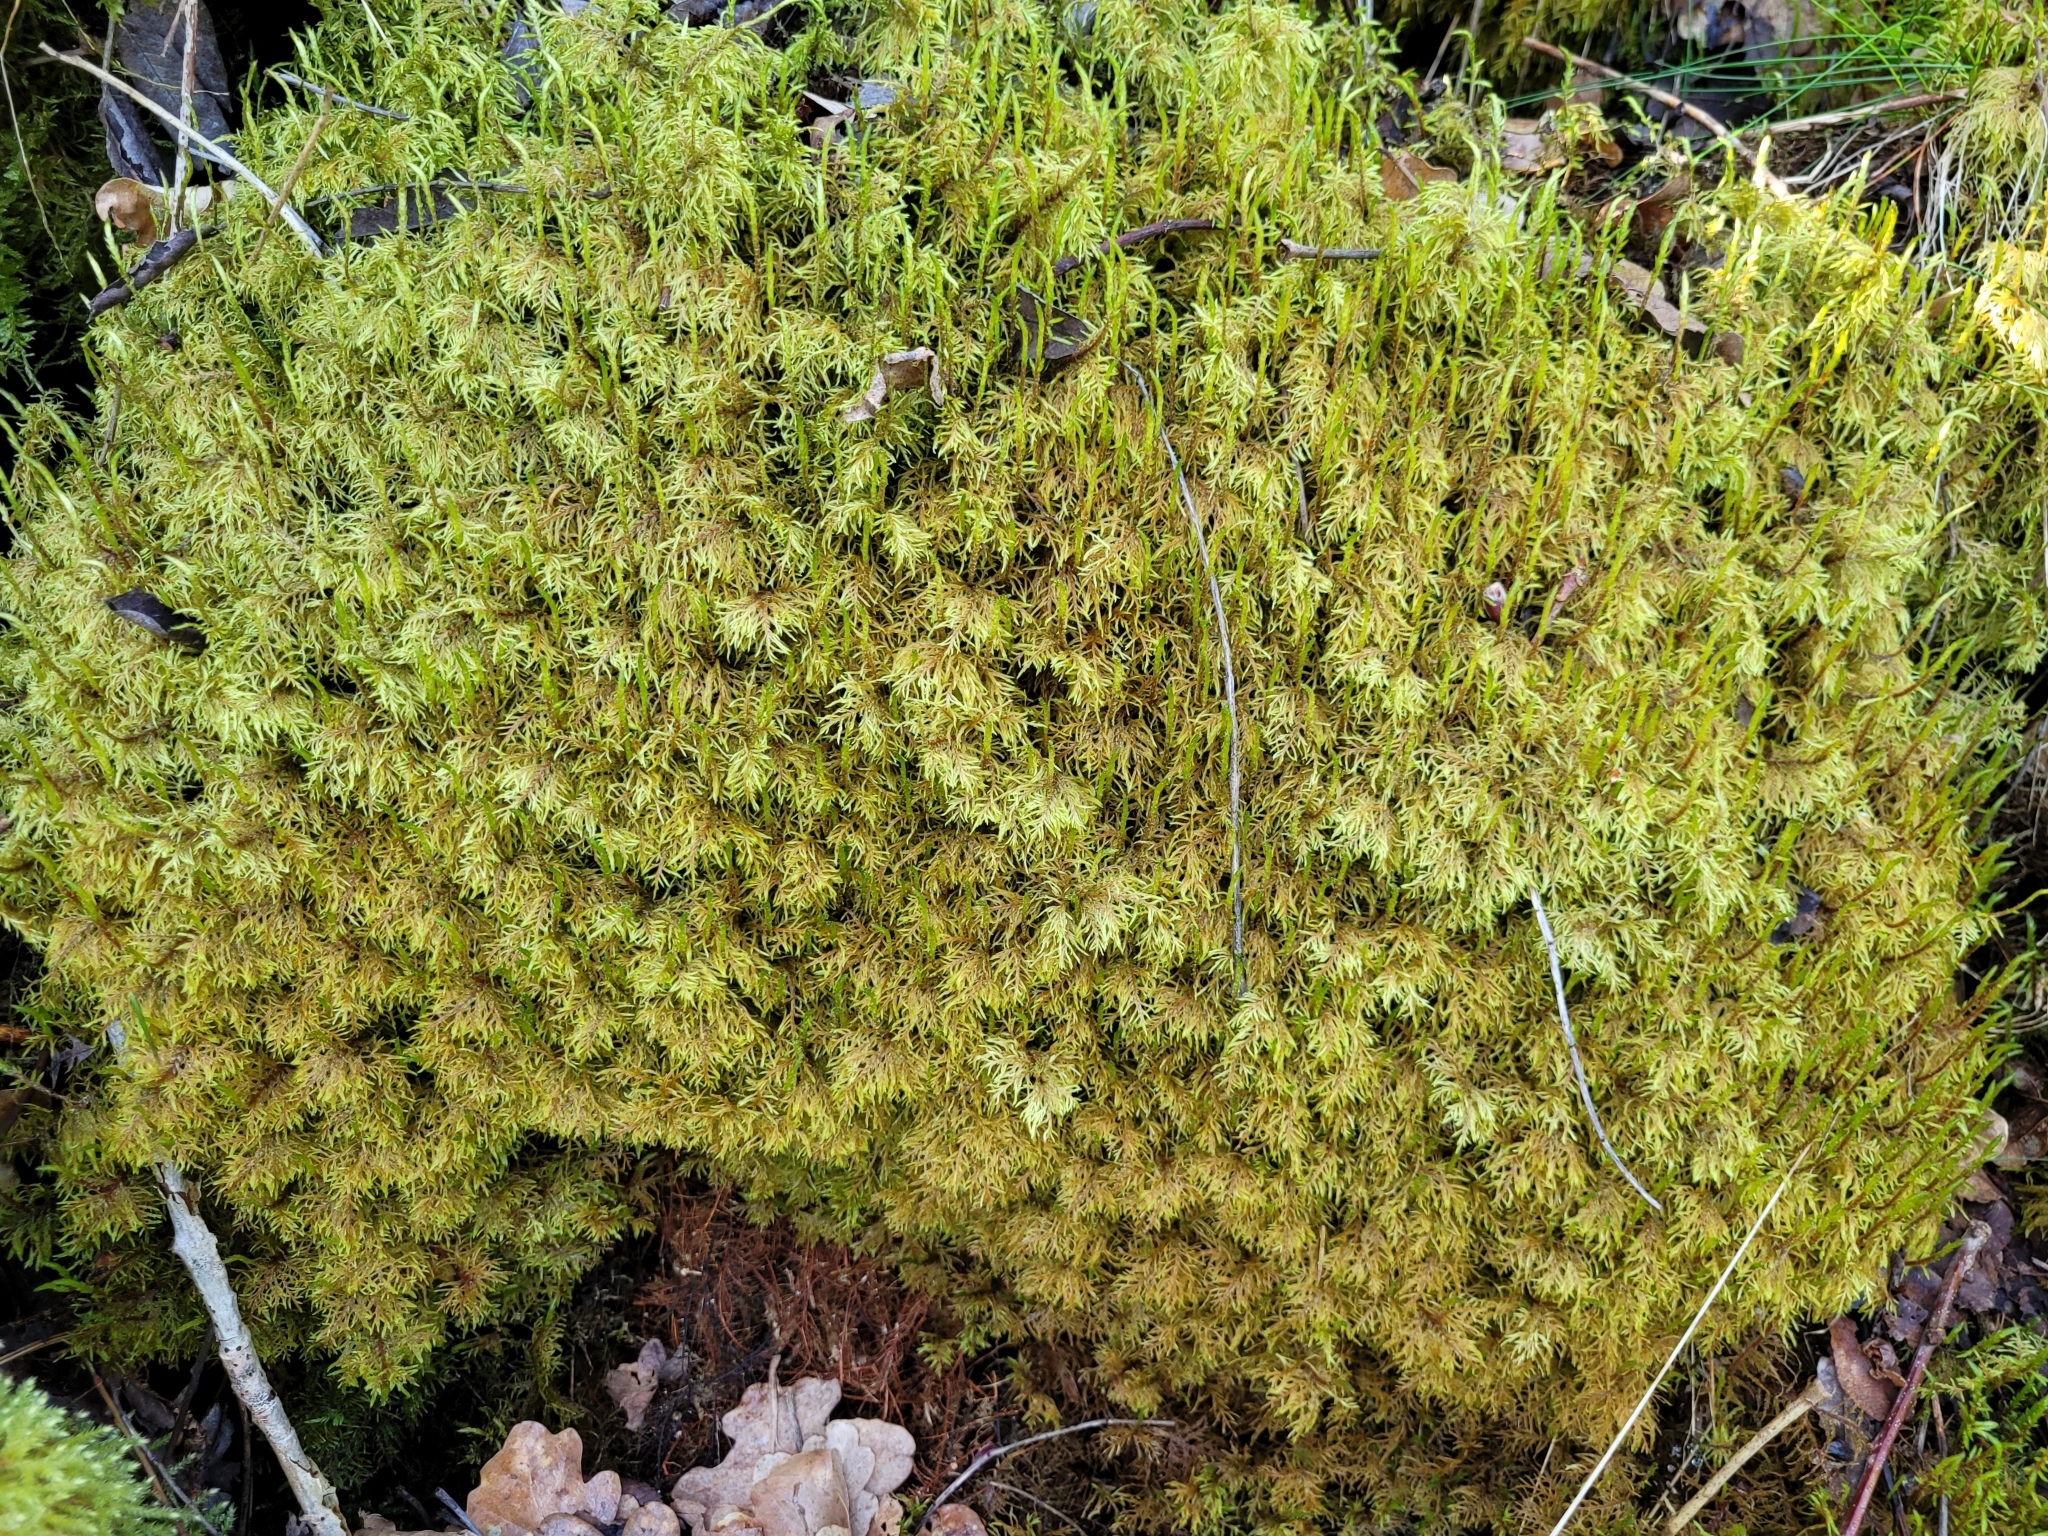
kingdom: Plantae
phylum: Bryophyta
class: Bryopsida
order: Hypnales
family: Hylocomiaceae
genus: Hylocomium
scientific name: Hylocomium splendens
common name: Stairstep moss
